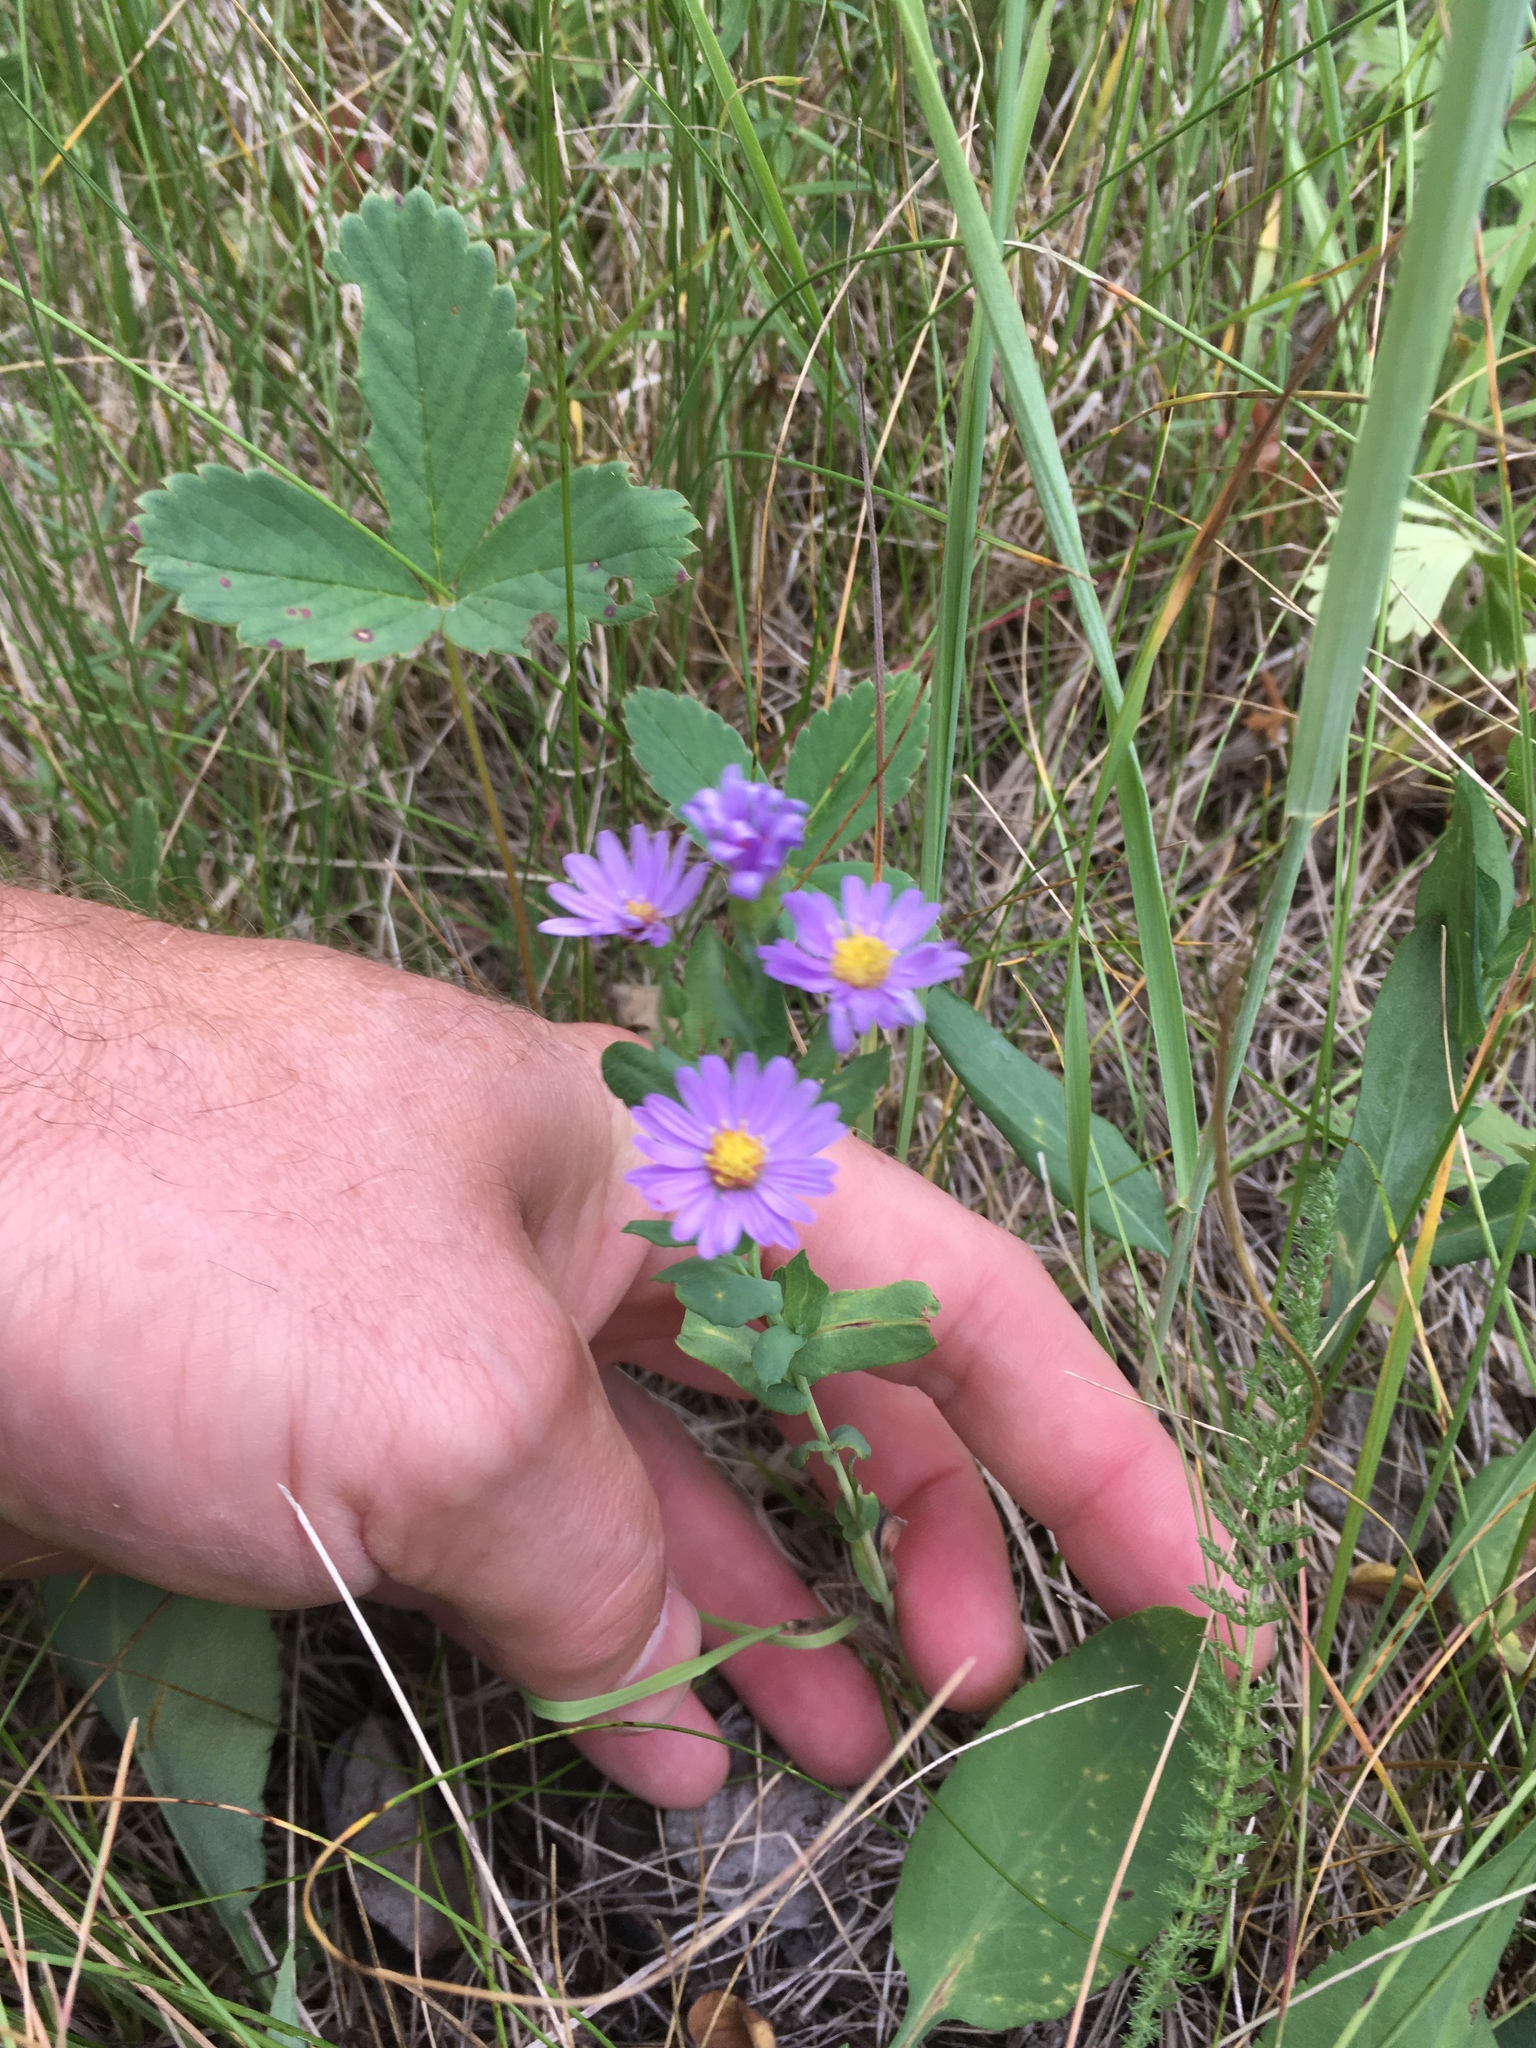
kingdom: Plantae
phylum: Tracheophyta
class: Magnoliopsida
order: Asterales
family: Asteraceae
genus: Symphyotrichum
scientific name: Symphyotrichum laeve
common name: Glaucous aster
